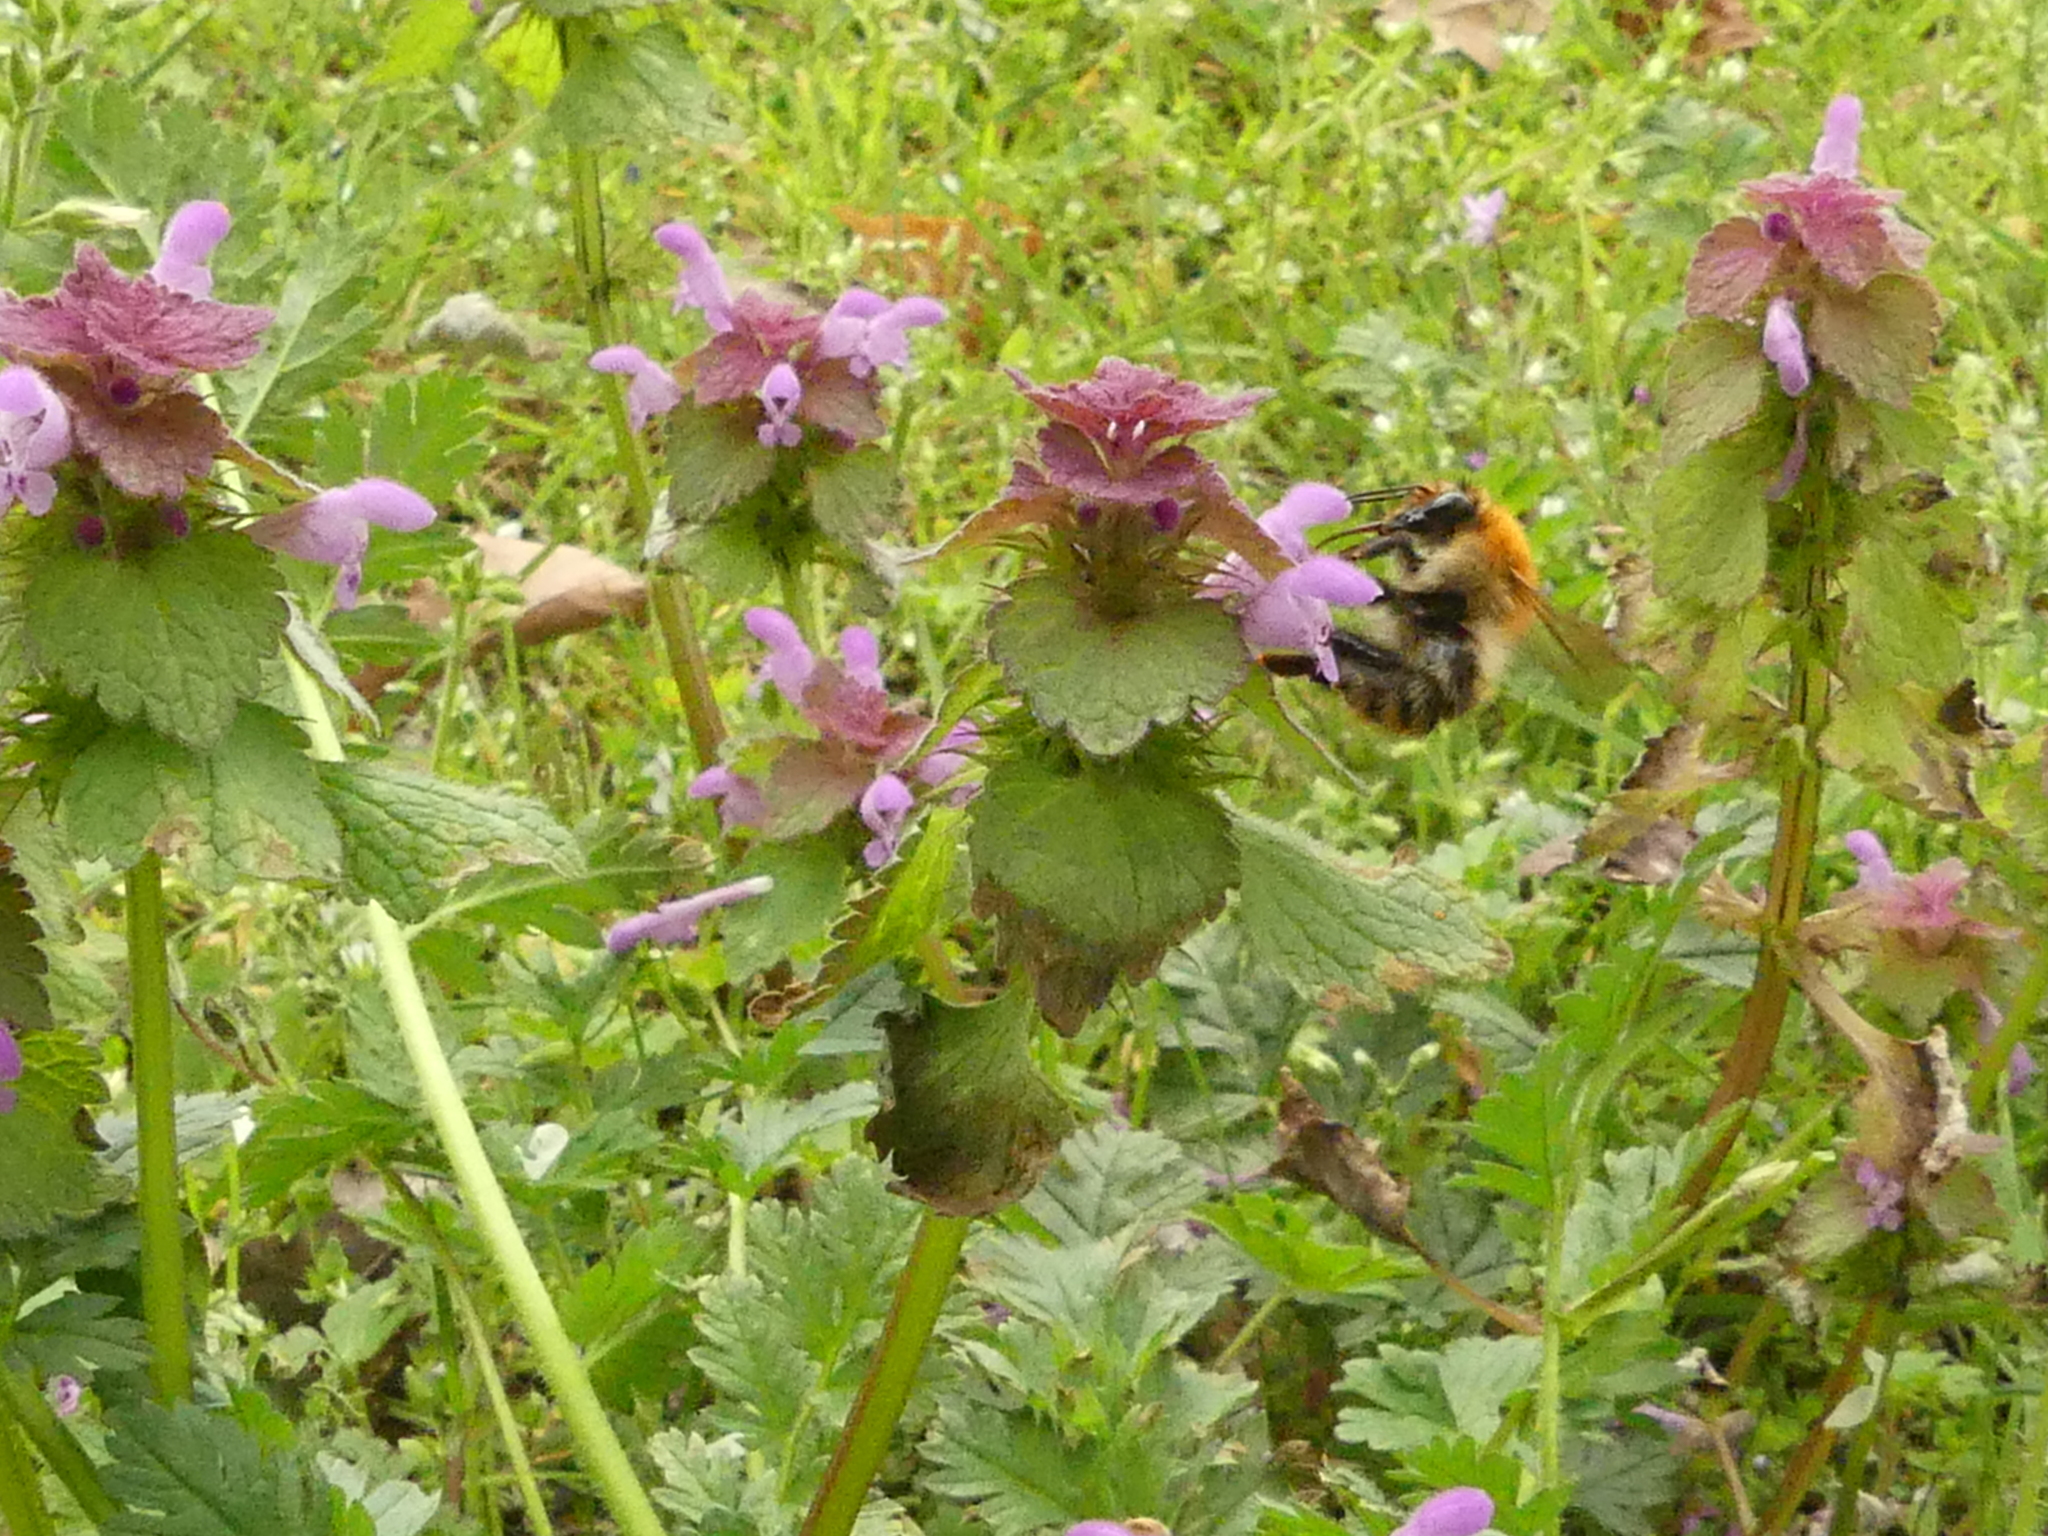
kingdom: Animalia
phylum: Arthropoda
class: Insecta
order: Hymenoptera
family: Apidae
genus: Bombus
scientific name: Bombus pascuorum
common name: Common carder bee
